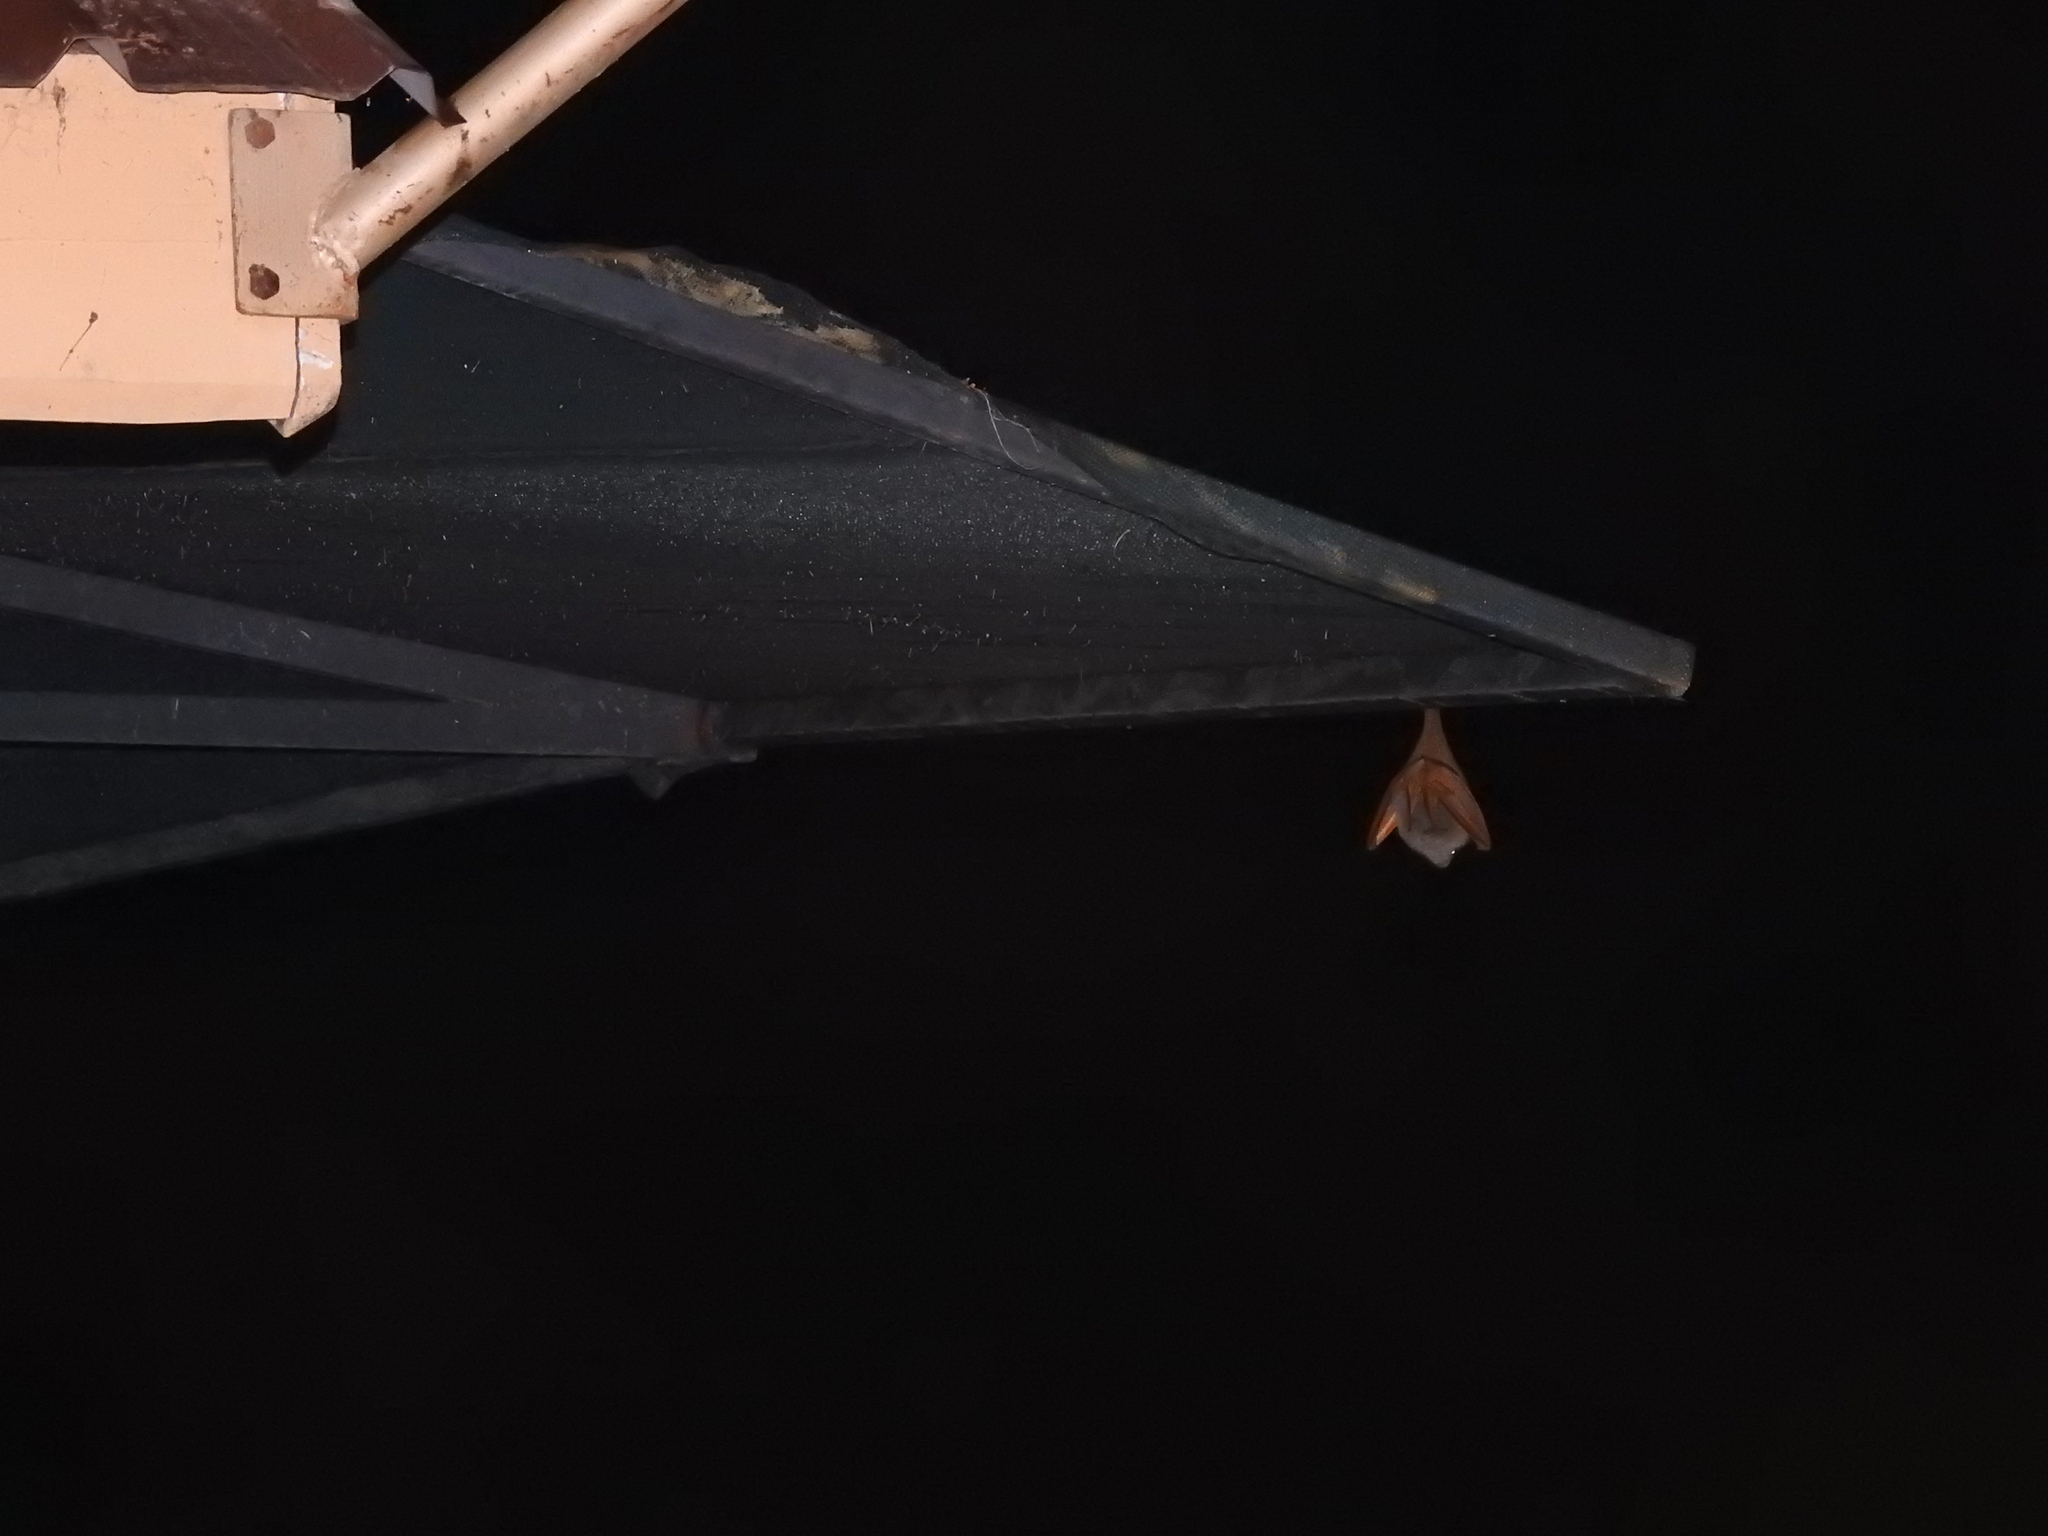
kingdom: Animalia
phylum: Chordata
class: Mammalia
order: Chiroptera
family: Megadermatidae
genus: Lavia
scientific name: Lavia frons
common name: Yellow-winged bat
